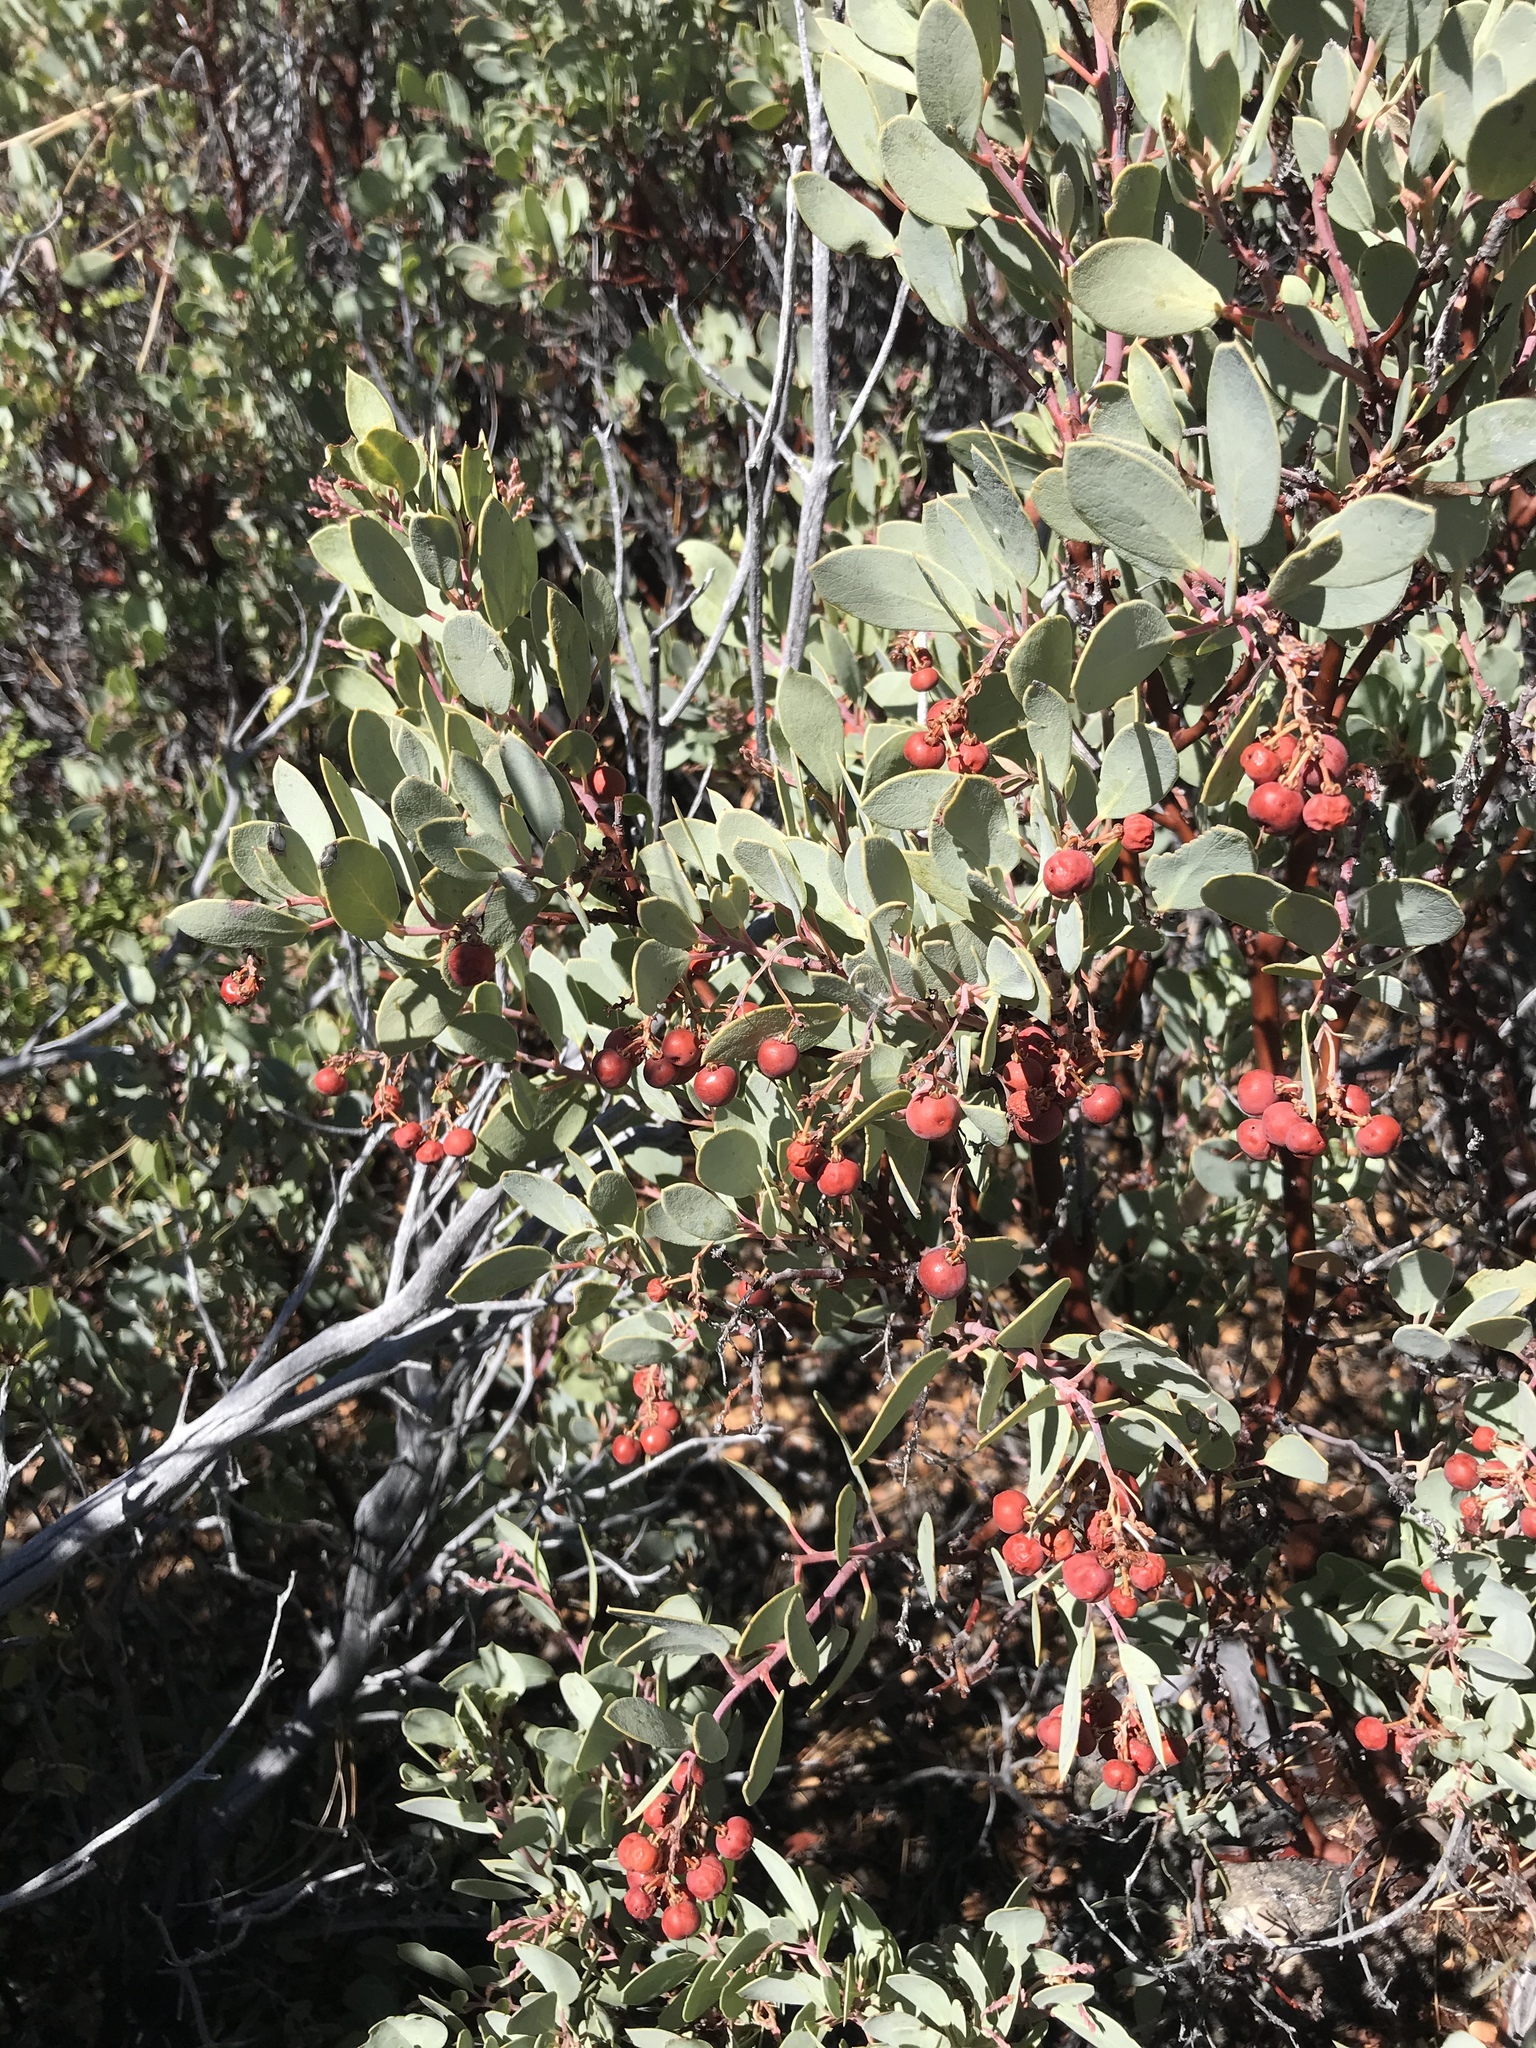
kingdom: Plantae
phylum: Tracheophyta
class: Magnoliopsida
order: Ericales
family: Ericaceae
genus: Arctostaphylos
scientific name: Arctostaphylos peninsularis
